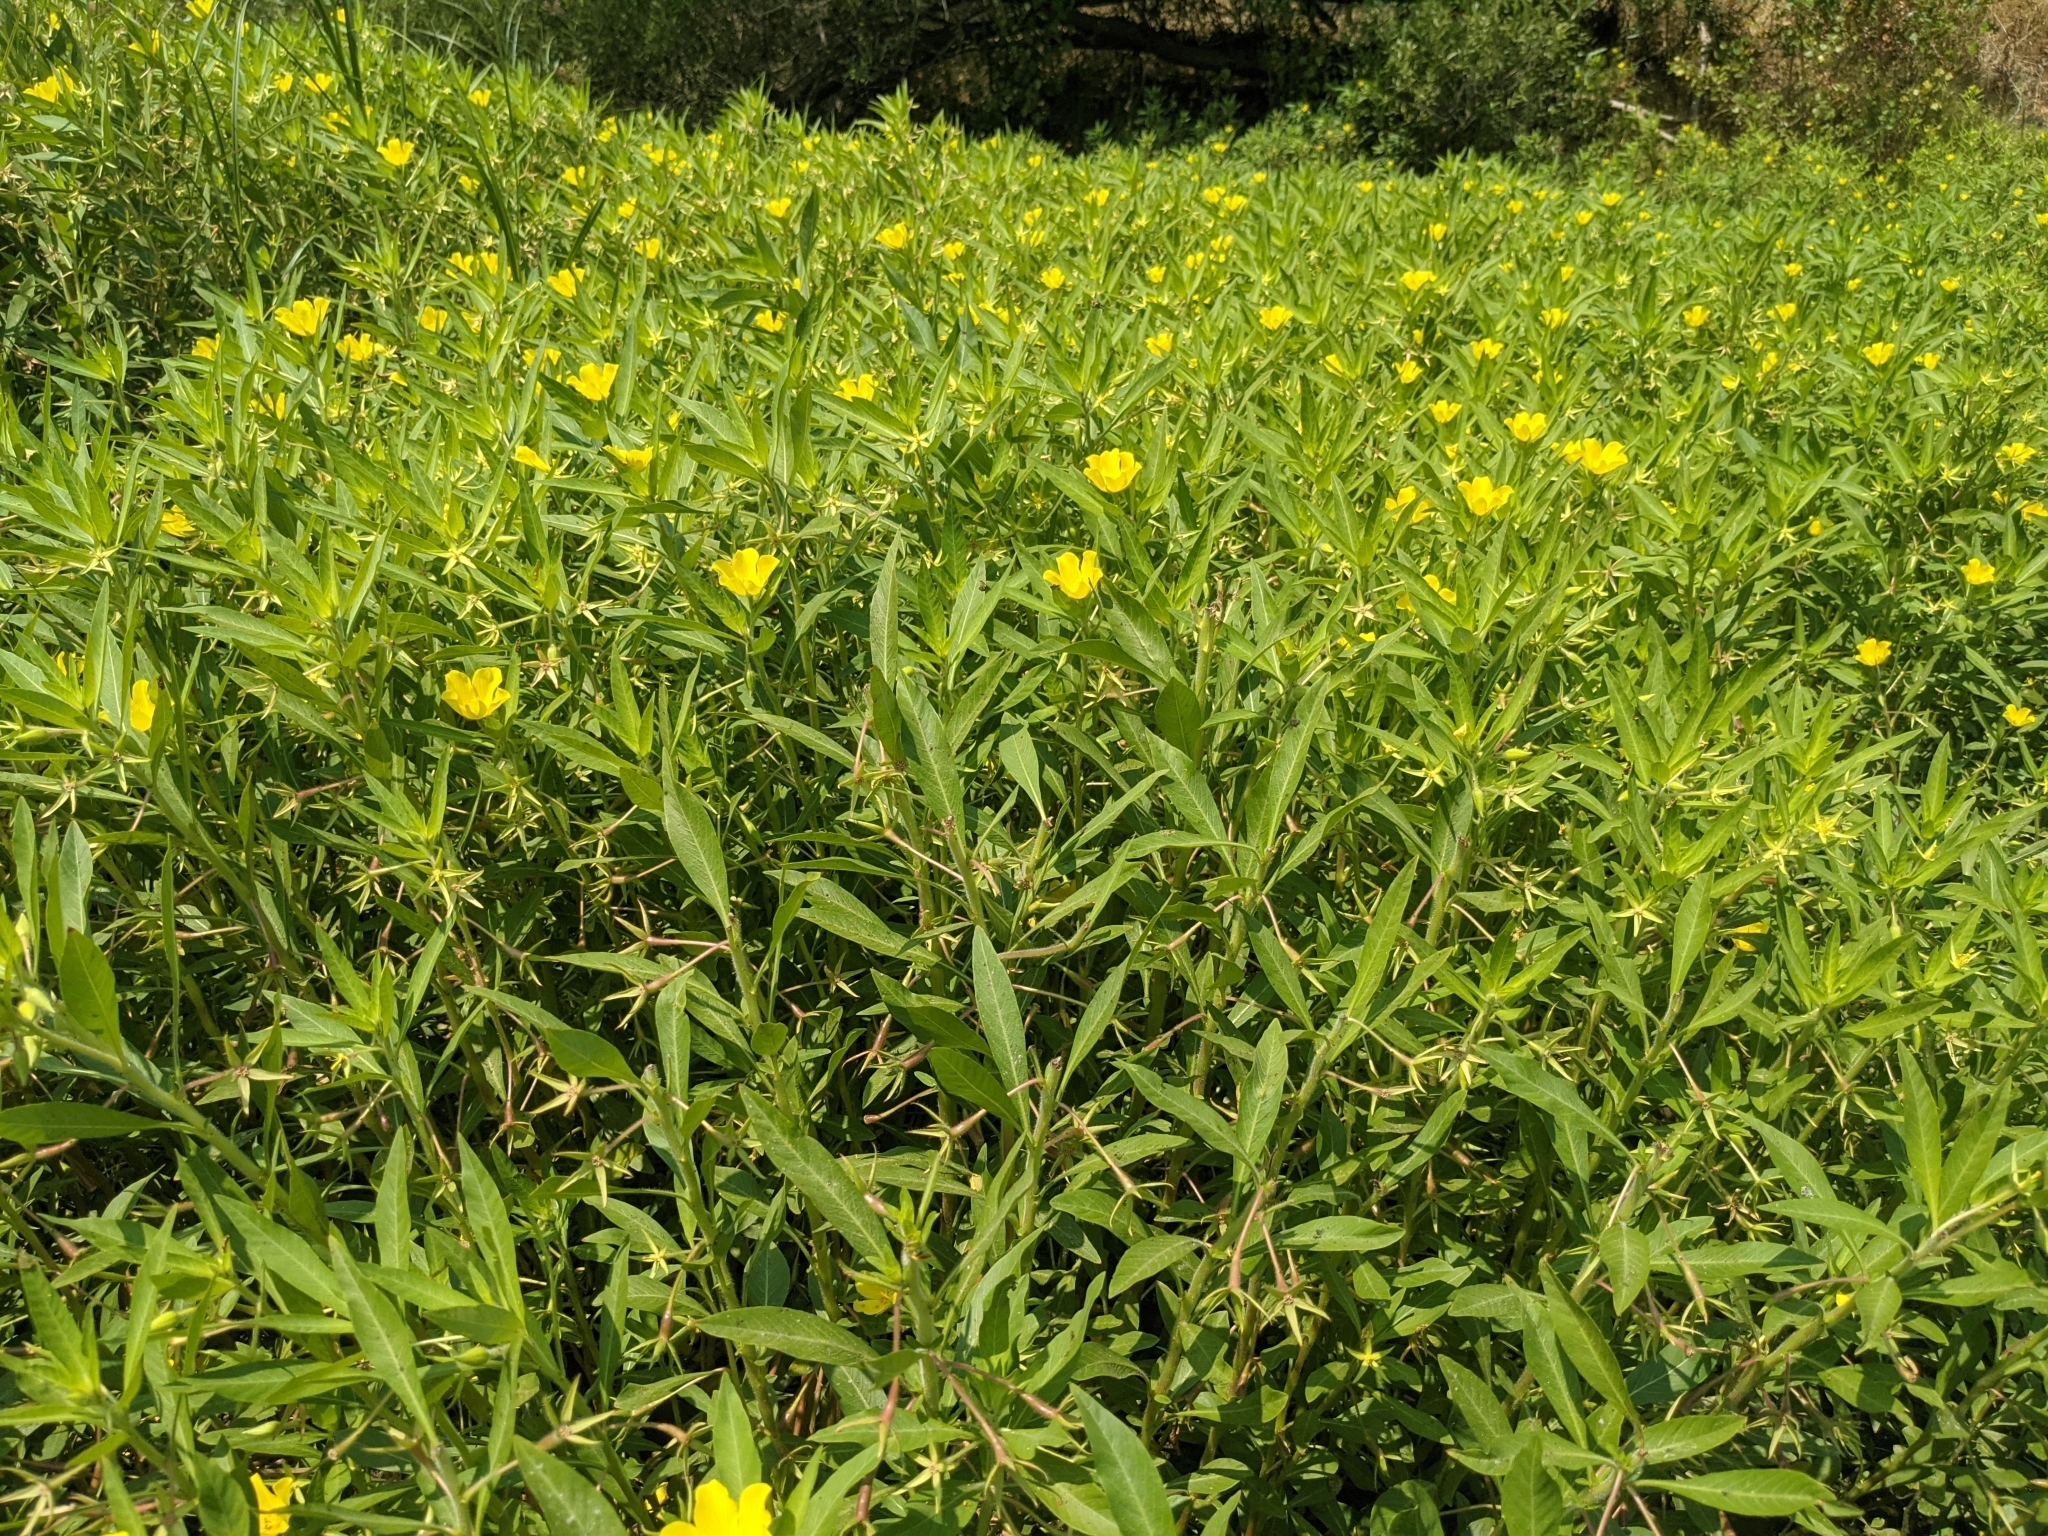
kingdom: Plantae
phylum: Tracheophyta
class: Magnoliopsida
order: Myrtales
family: Onagraceae
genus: Ludwigia
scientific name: Ludwigia hexapetala
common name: Water-primrose
